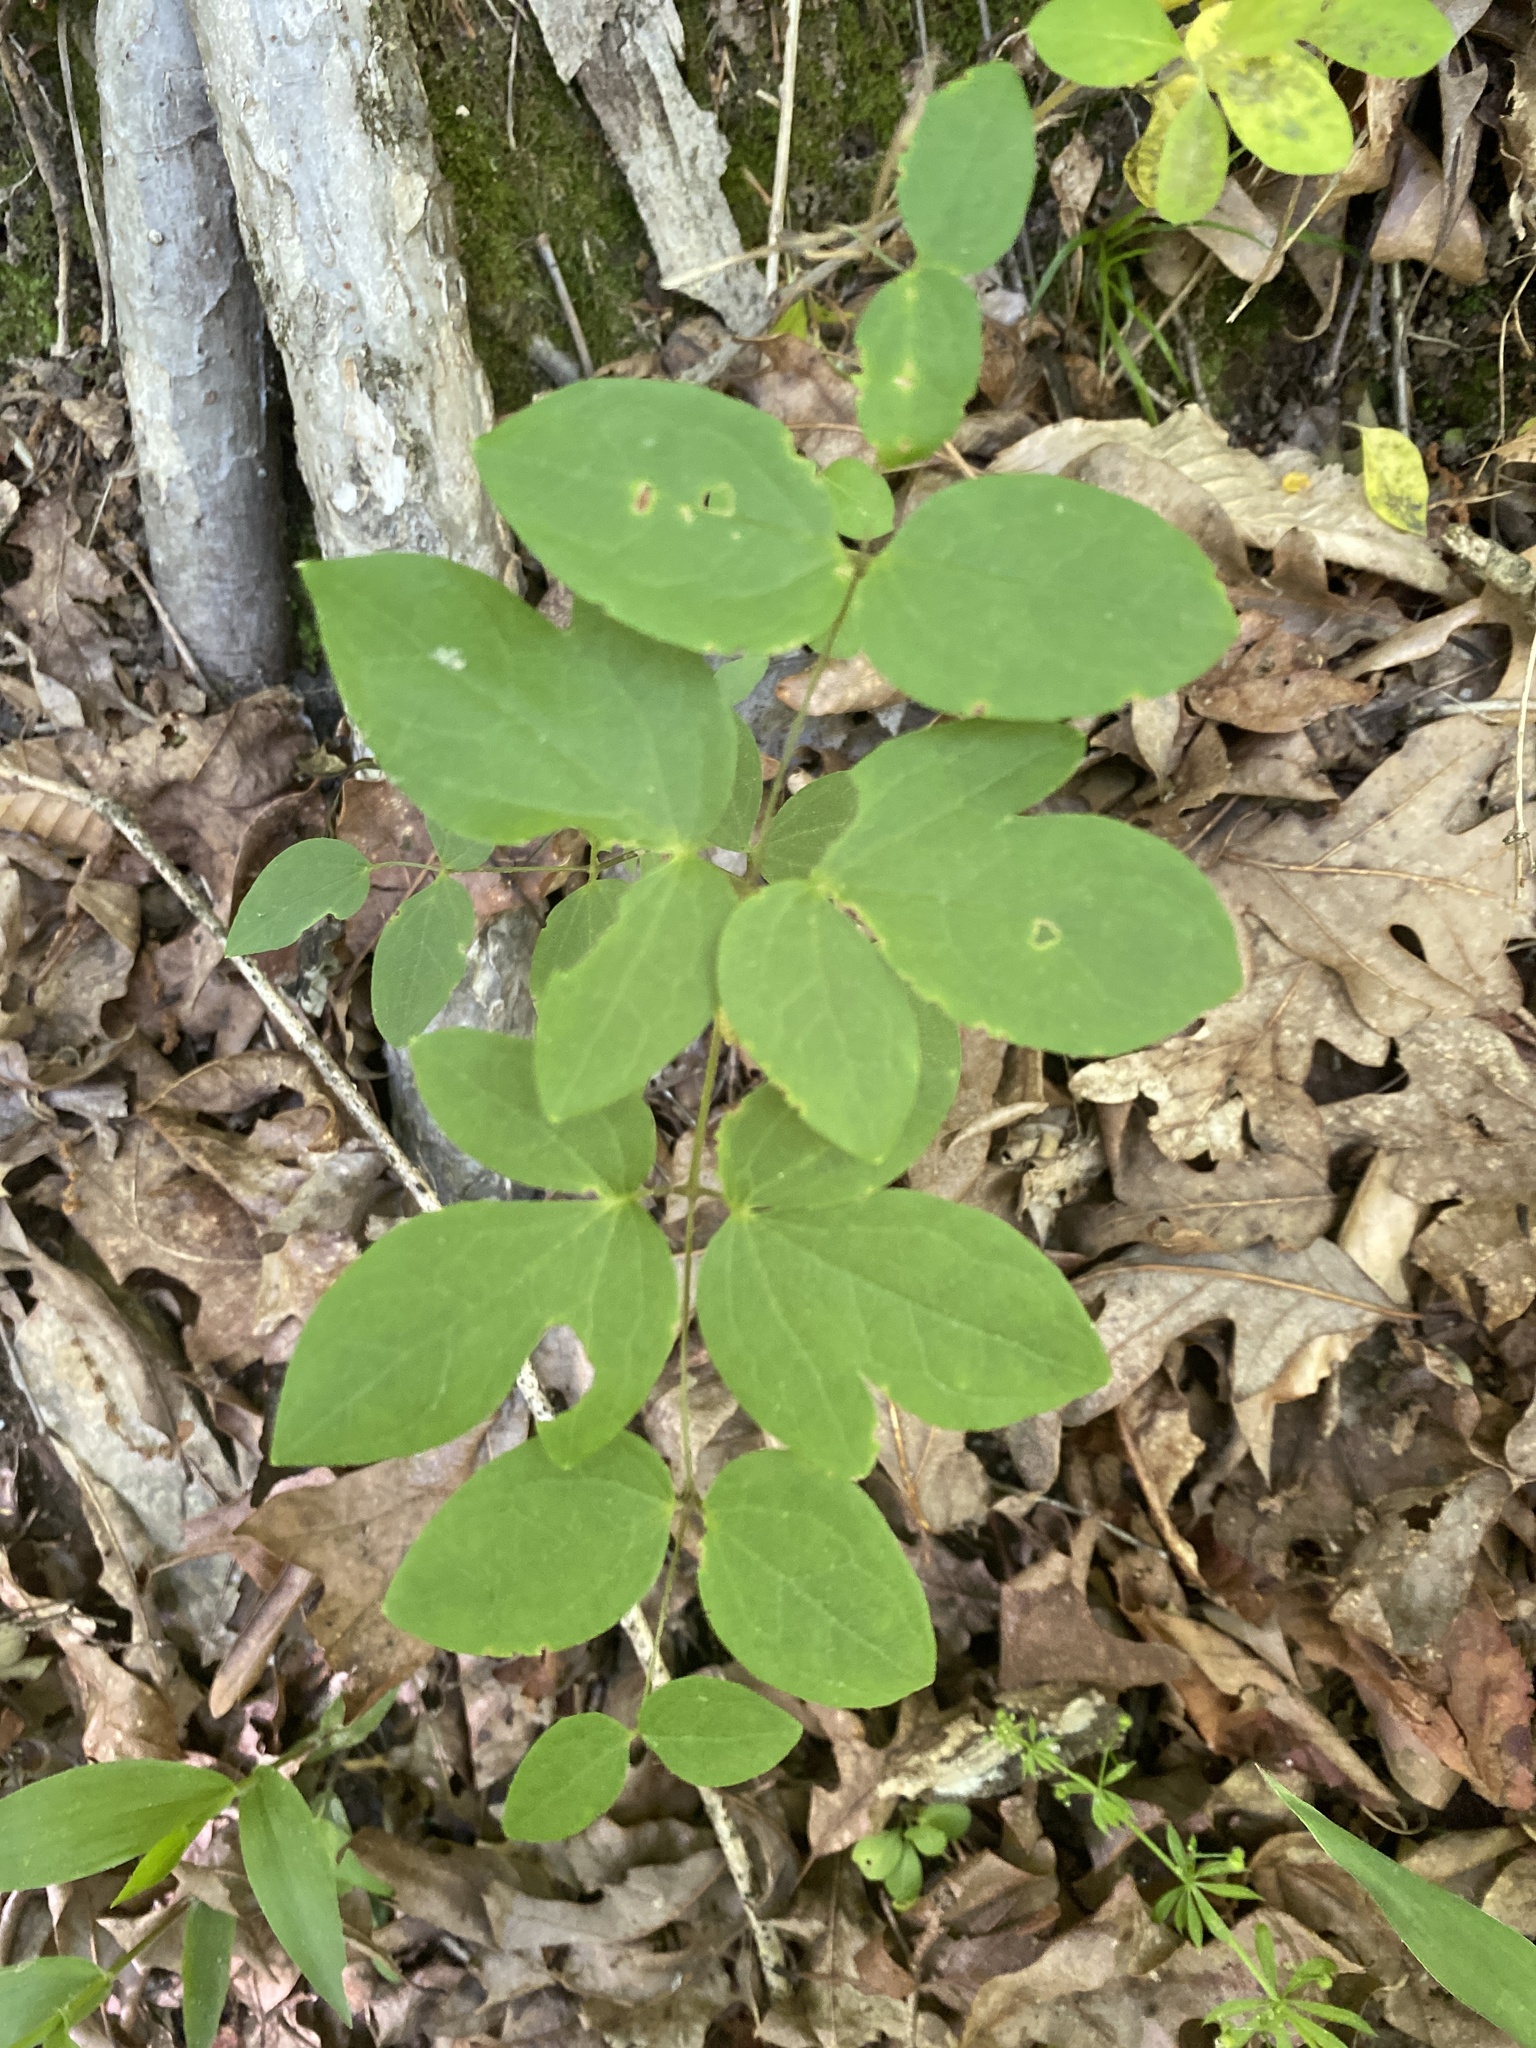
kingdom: Plantae
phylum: Tracheophyta
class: Magnoliopsida
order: Ranunculales
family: Ranunculaceae
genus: Clematis
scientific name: Clematis viorna
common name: Leather-flower
